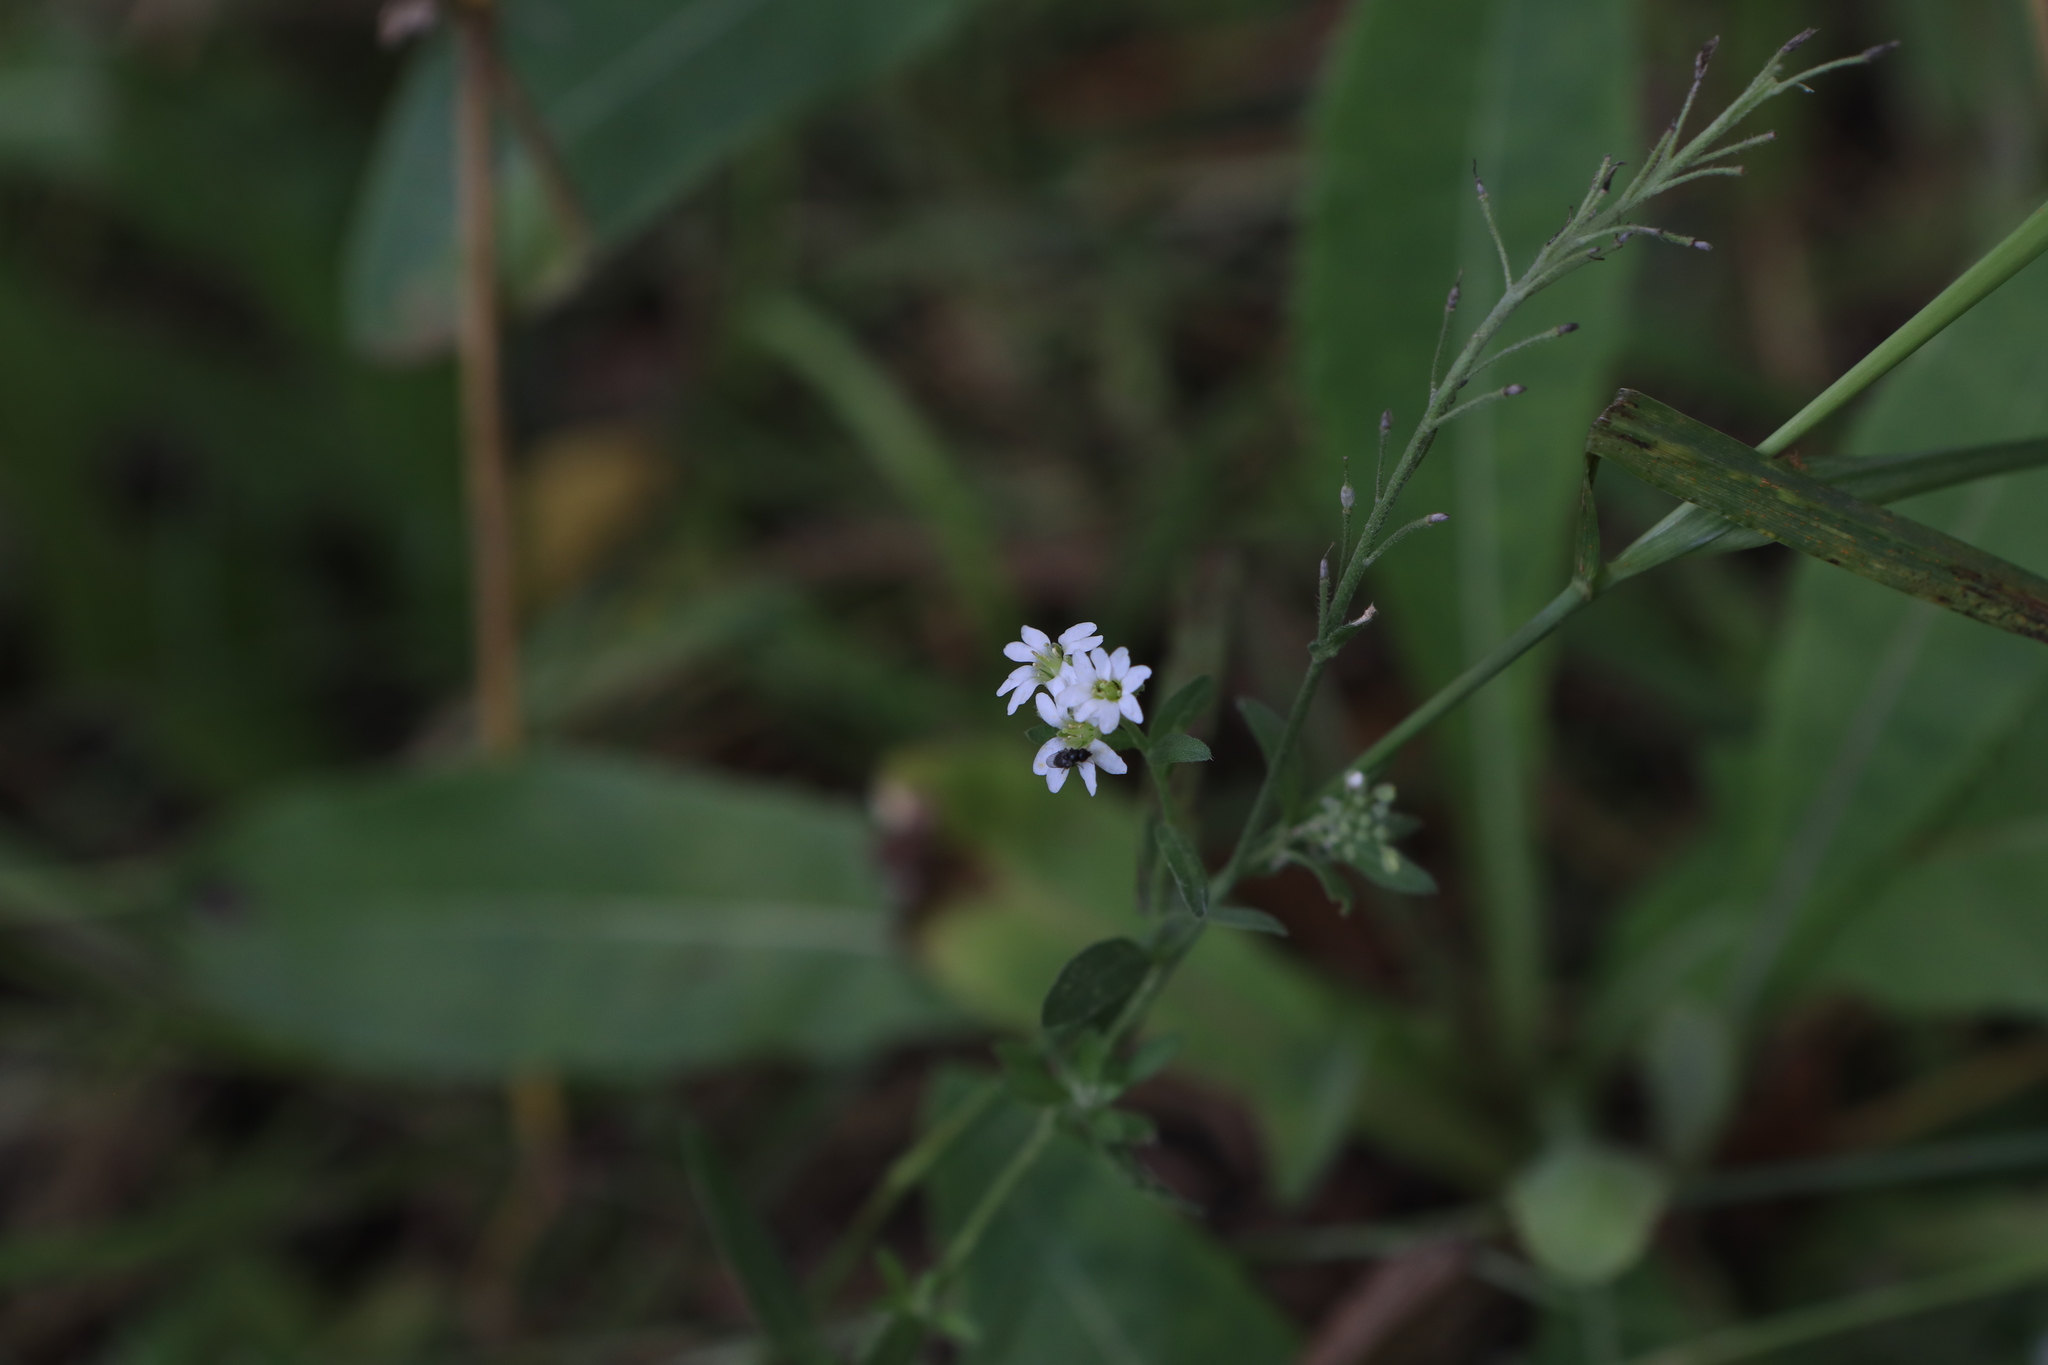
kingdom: Plantae
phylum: Tracheophyta
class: Magnoliopsida
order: Brassicales
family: Brassicaceae
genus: Berteroa
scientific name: Berteroa incana
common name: Hoary alison
